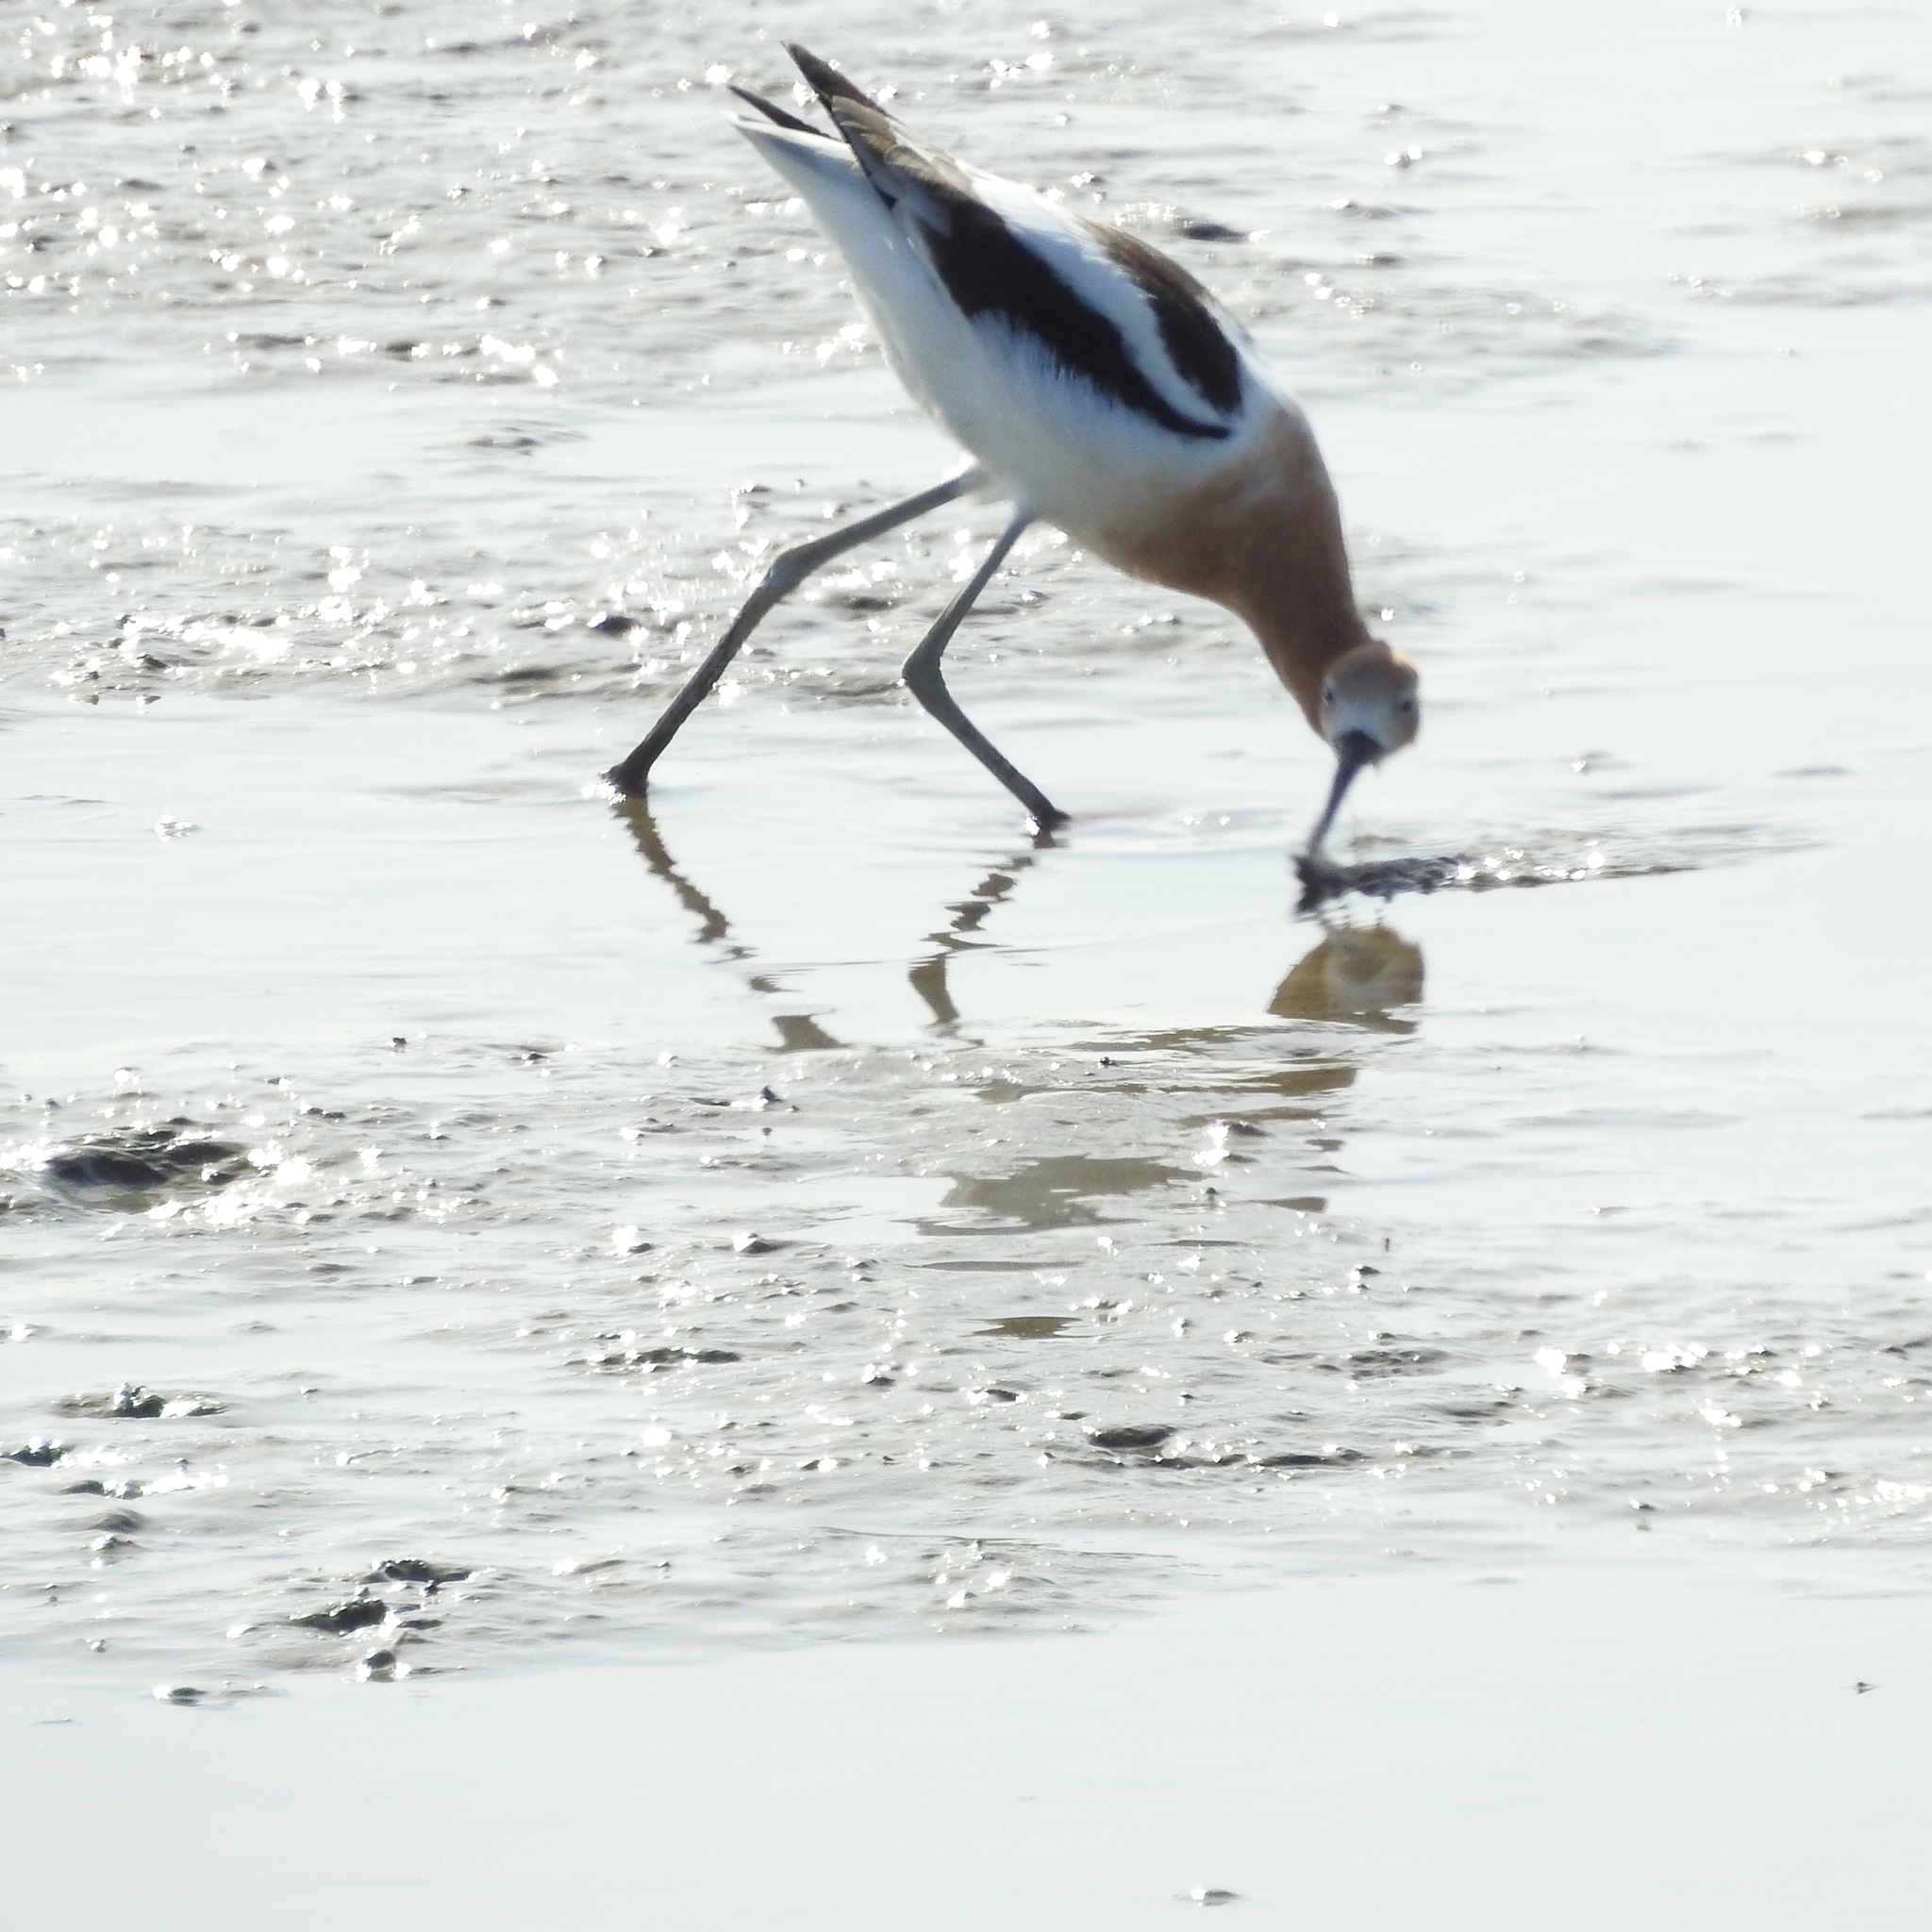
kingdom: Animalia
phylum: Chordata
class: Aves
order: Charadriiformes
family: Recurvirostridae
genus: Recurvirostra
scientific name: Recurvirostra americana
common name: American avocet
